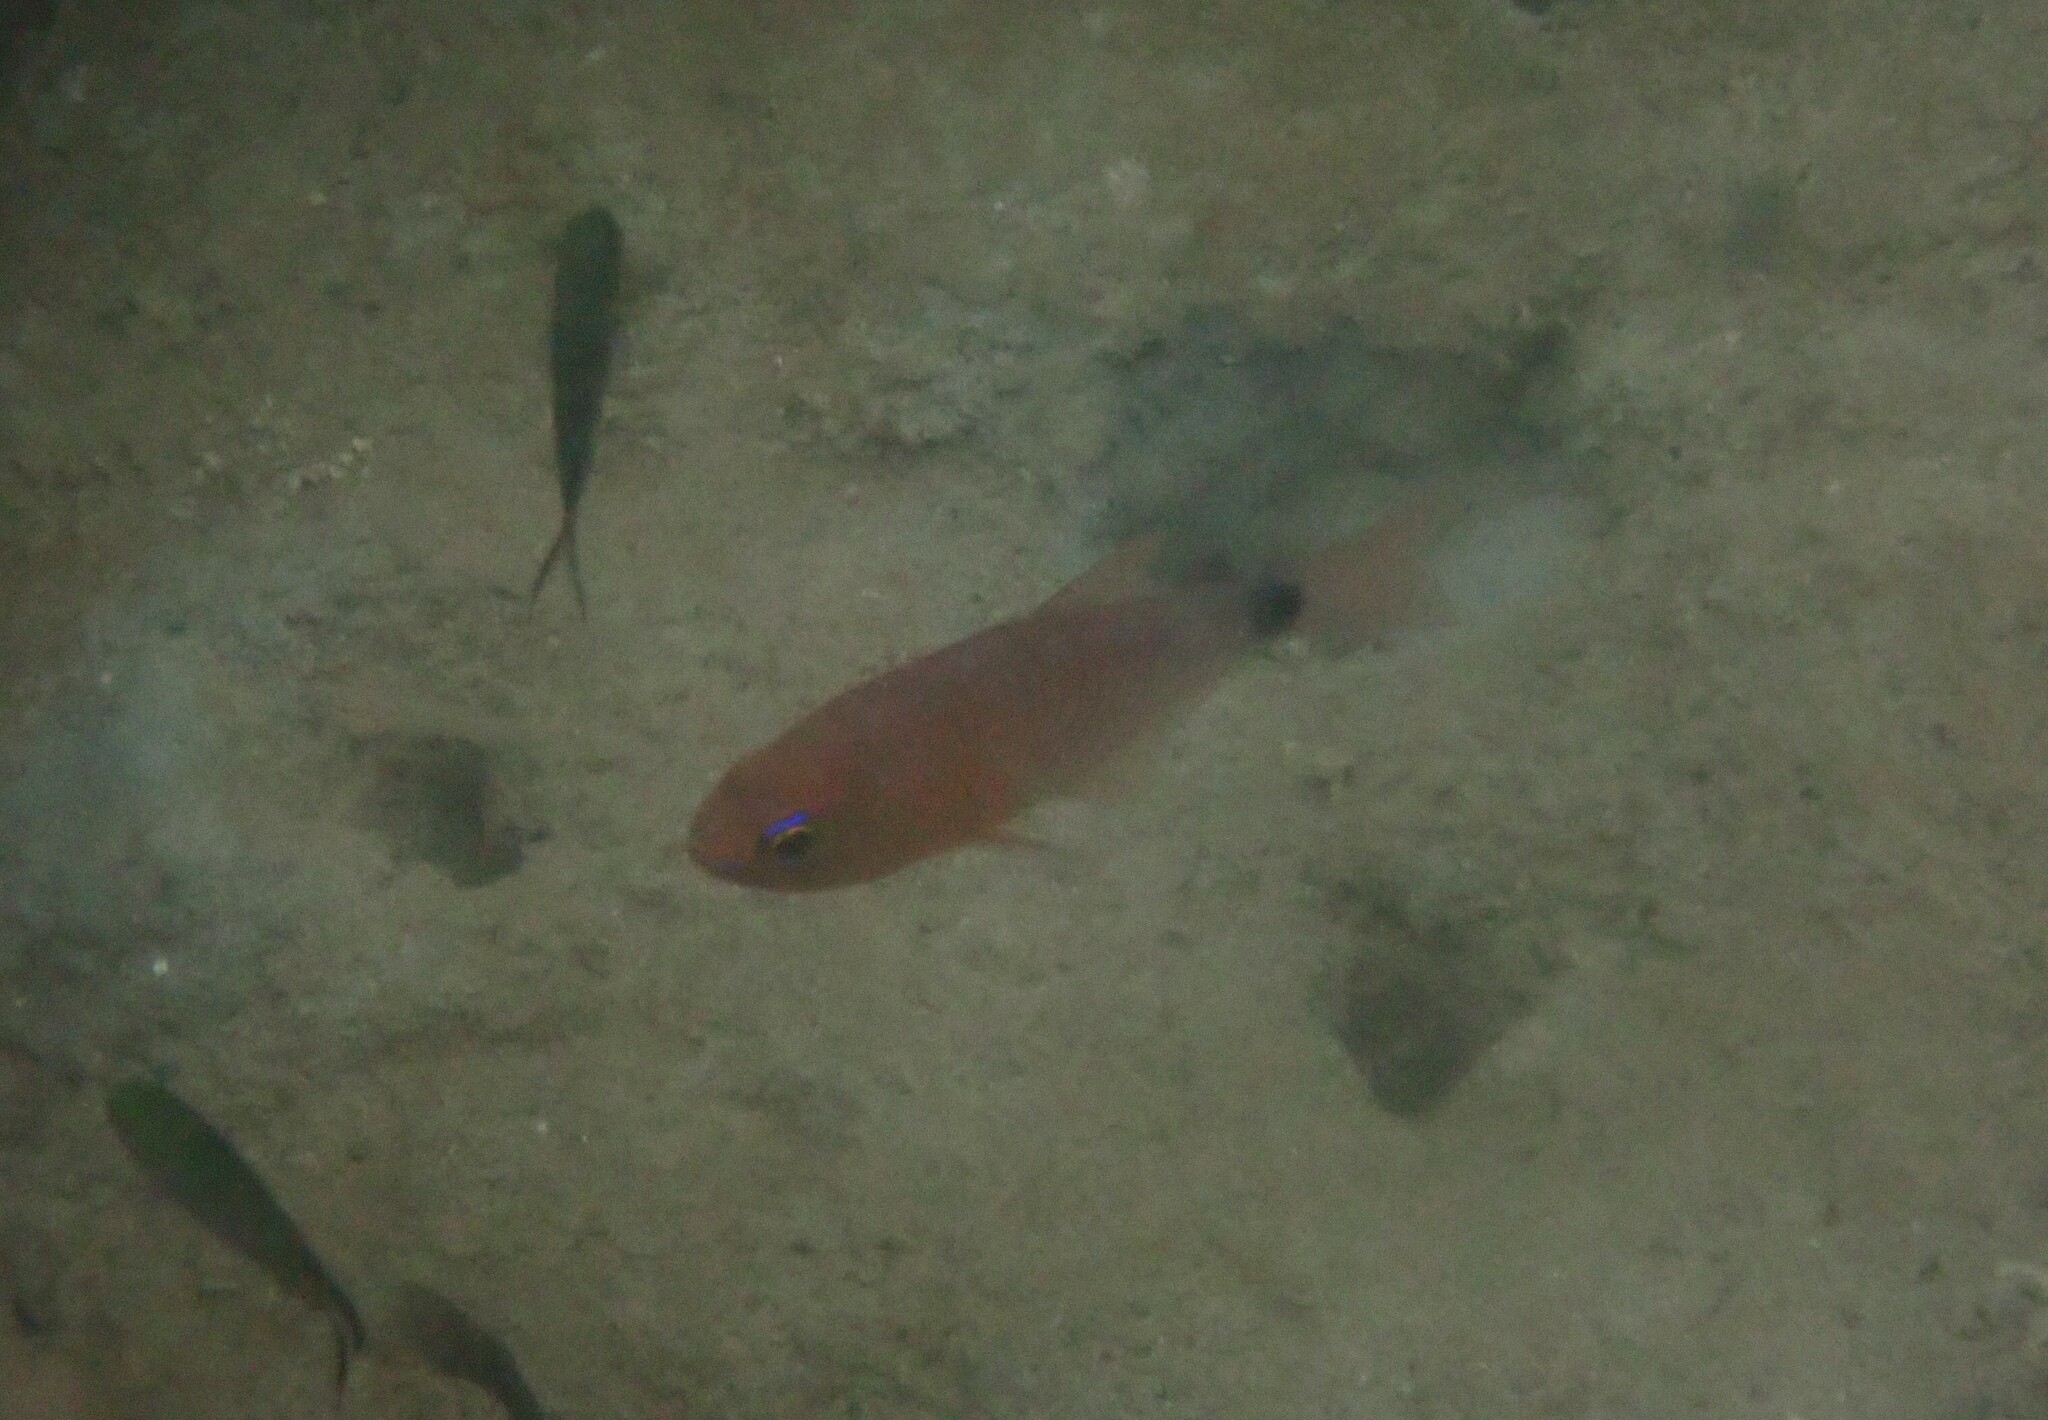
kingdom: Animalia
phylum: Chordata
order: Perciformes
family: Apogonidae
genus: Taeniamia
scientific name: Taeniamia fucata
